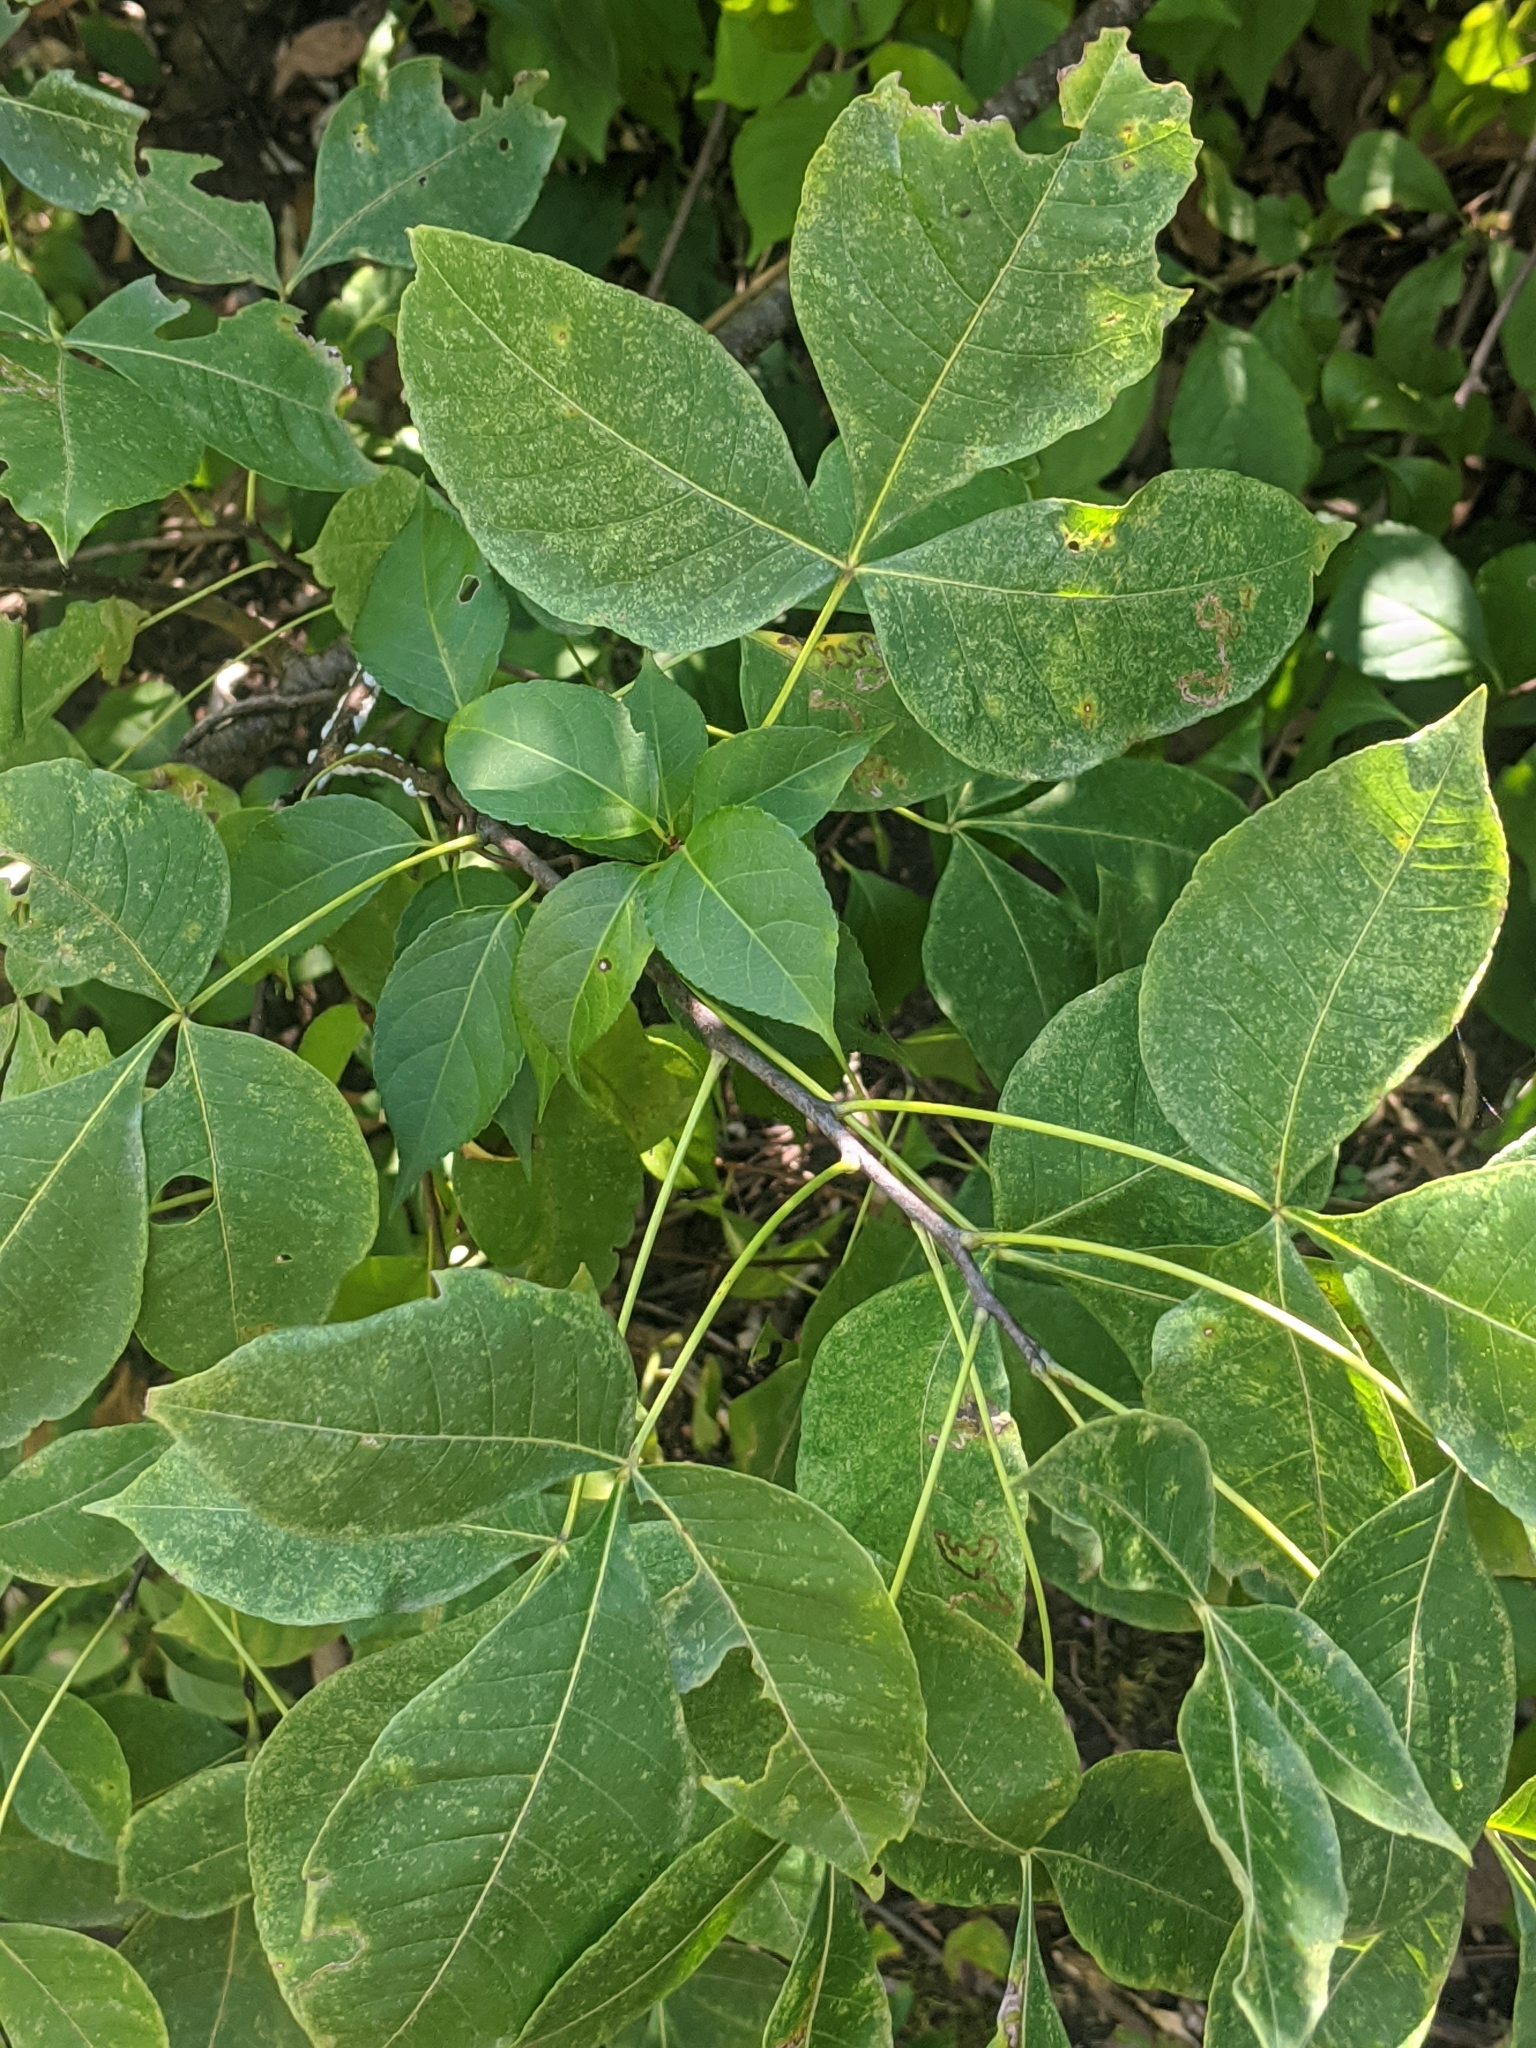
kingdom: Plantae
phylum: Tracheophyta
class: Magnoliopsida
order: Sapindales
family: Rutaceae
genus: Ptelea
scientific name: Ptelea trifoliata
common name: Common hop-tree
